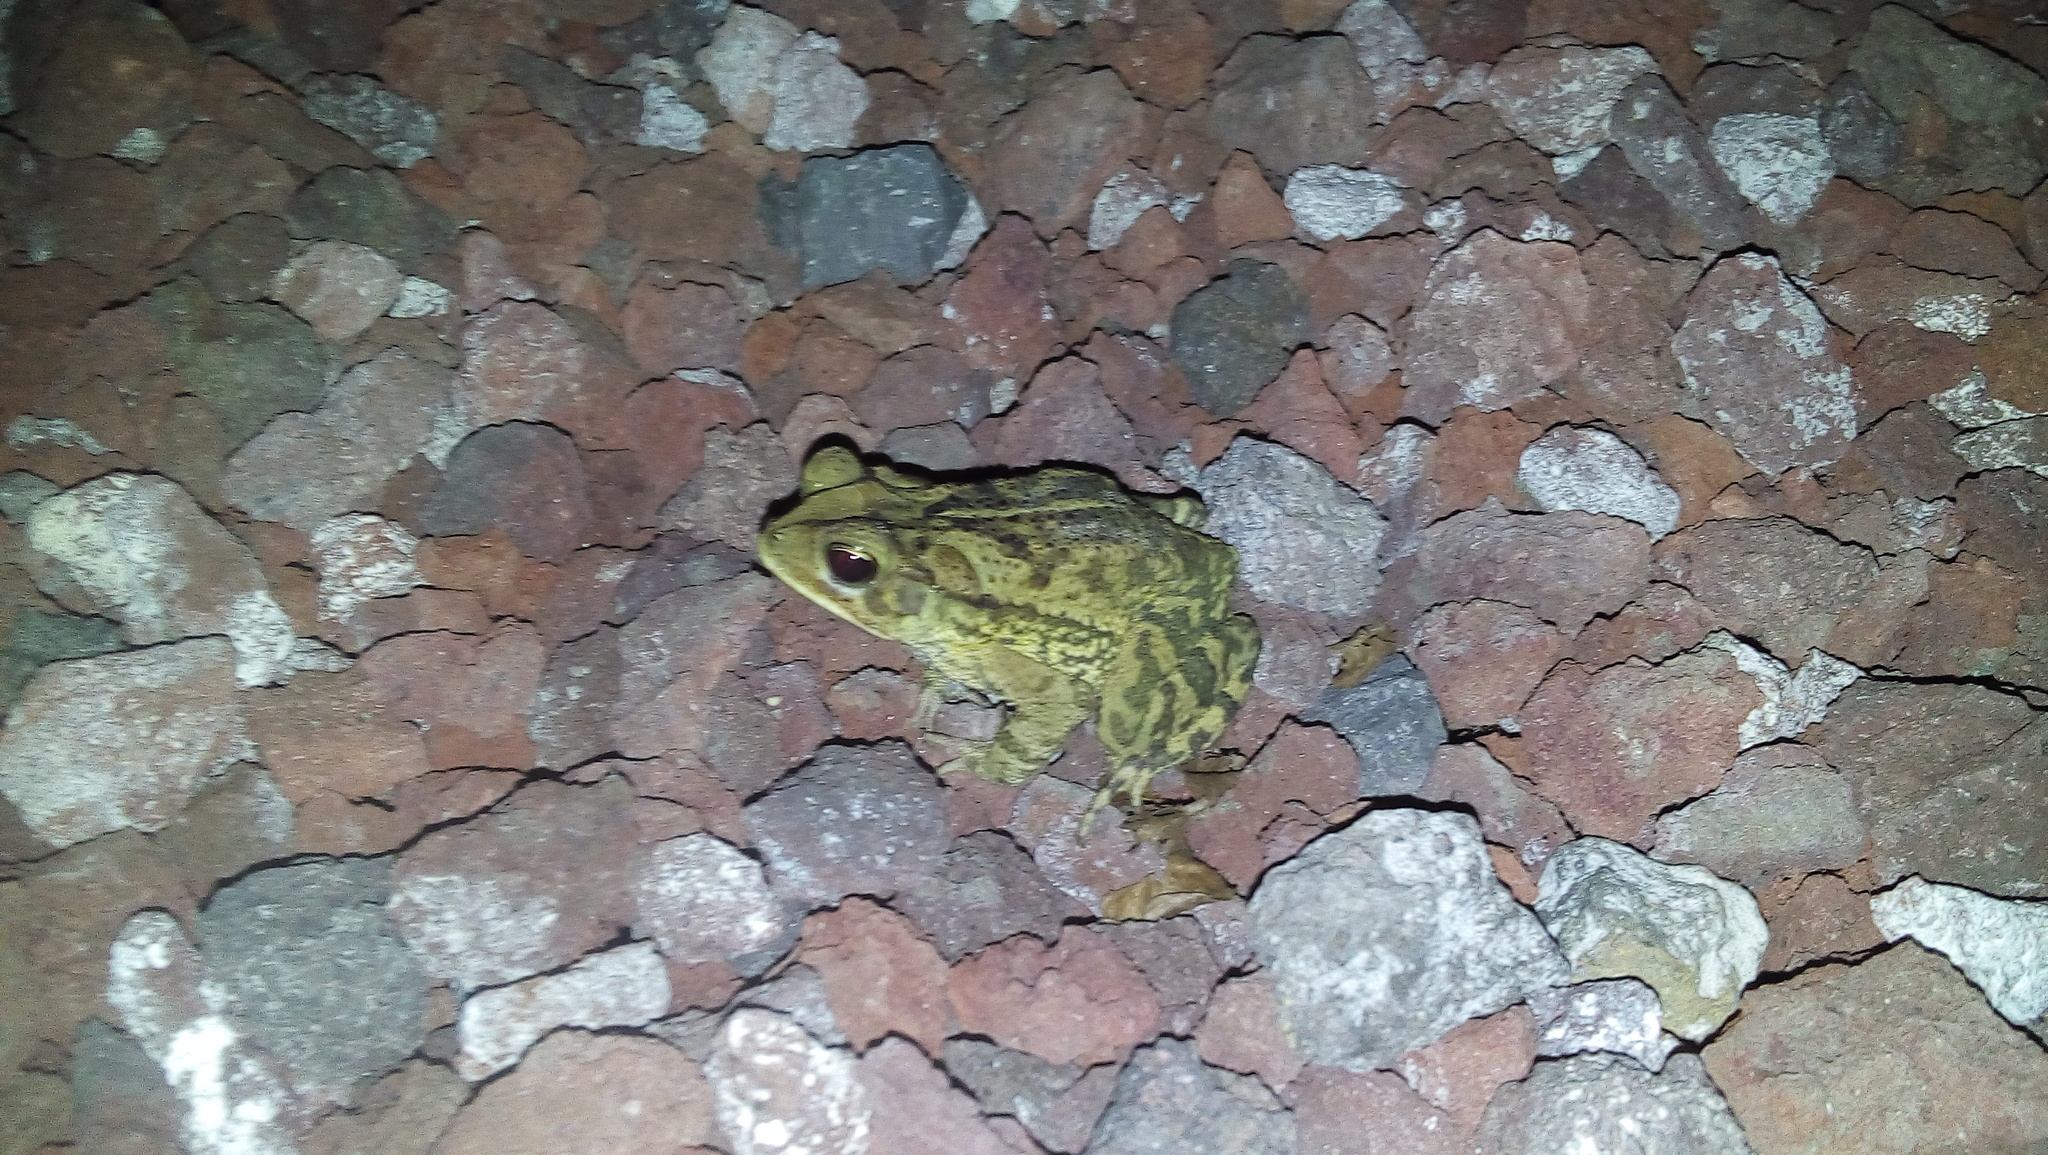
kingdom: Animalia
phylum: Chordata
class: Amphibia
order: Anura
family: Bufonidae
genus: Incilius
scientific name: Incilius valliceps
